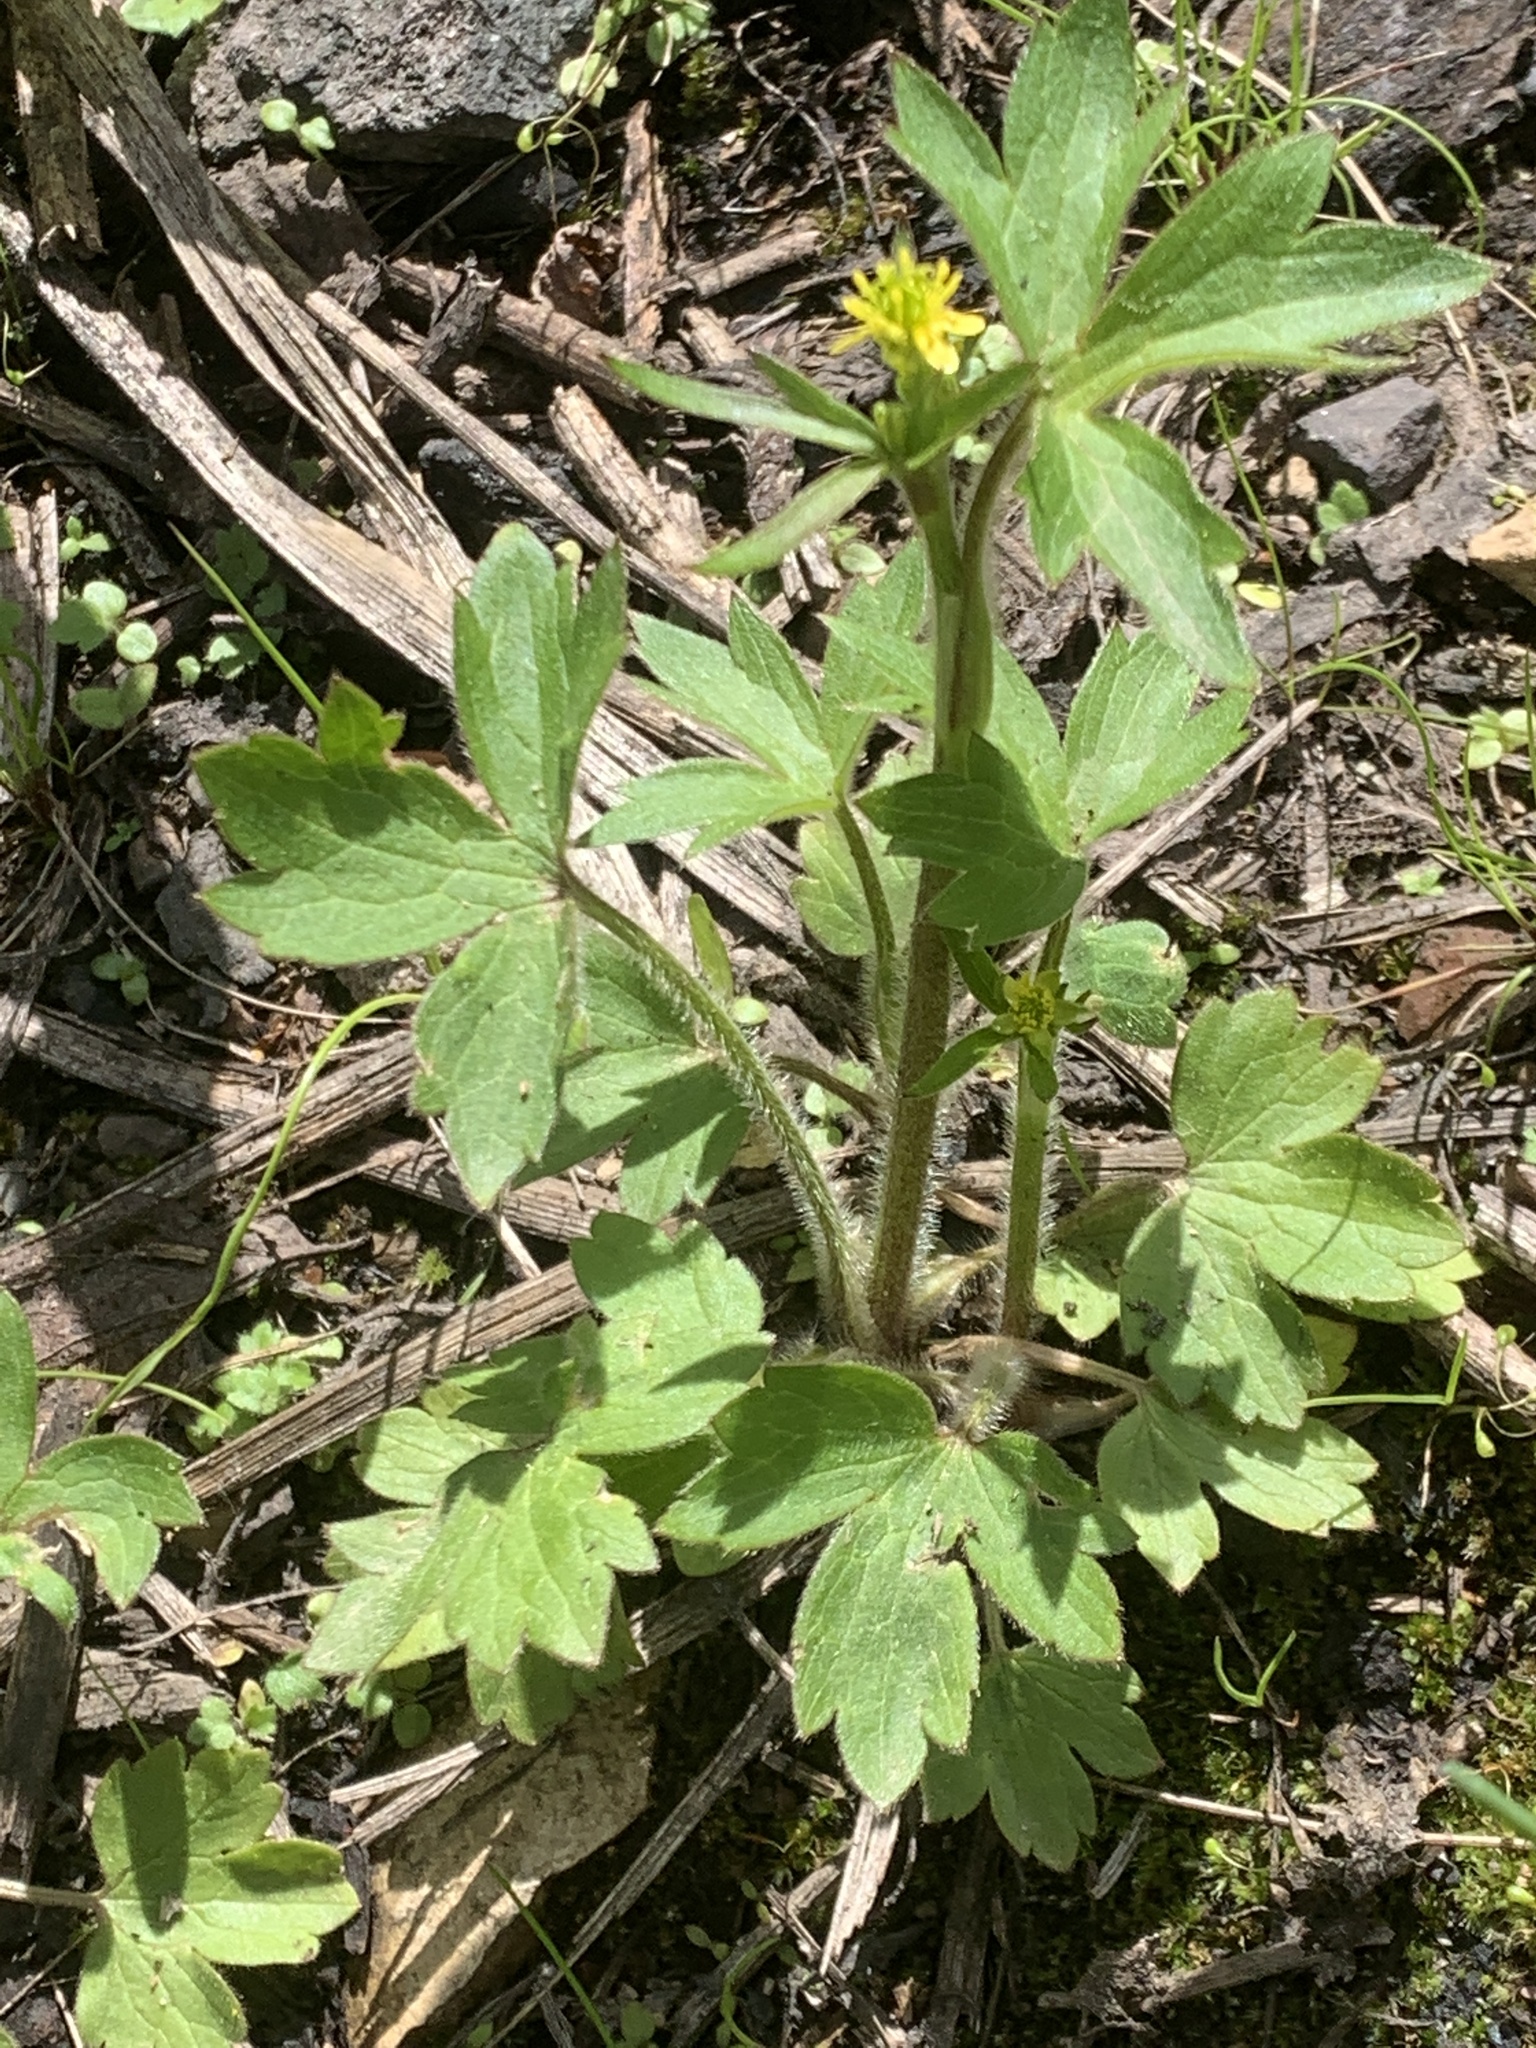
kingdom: Plantae
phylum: Tracheophyta
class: Magnoliopsida
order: Ranunculales
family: Ranunculaceae
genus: Ranunculus
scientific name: Ranunculus uncinatus
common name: Little buttercup
